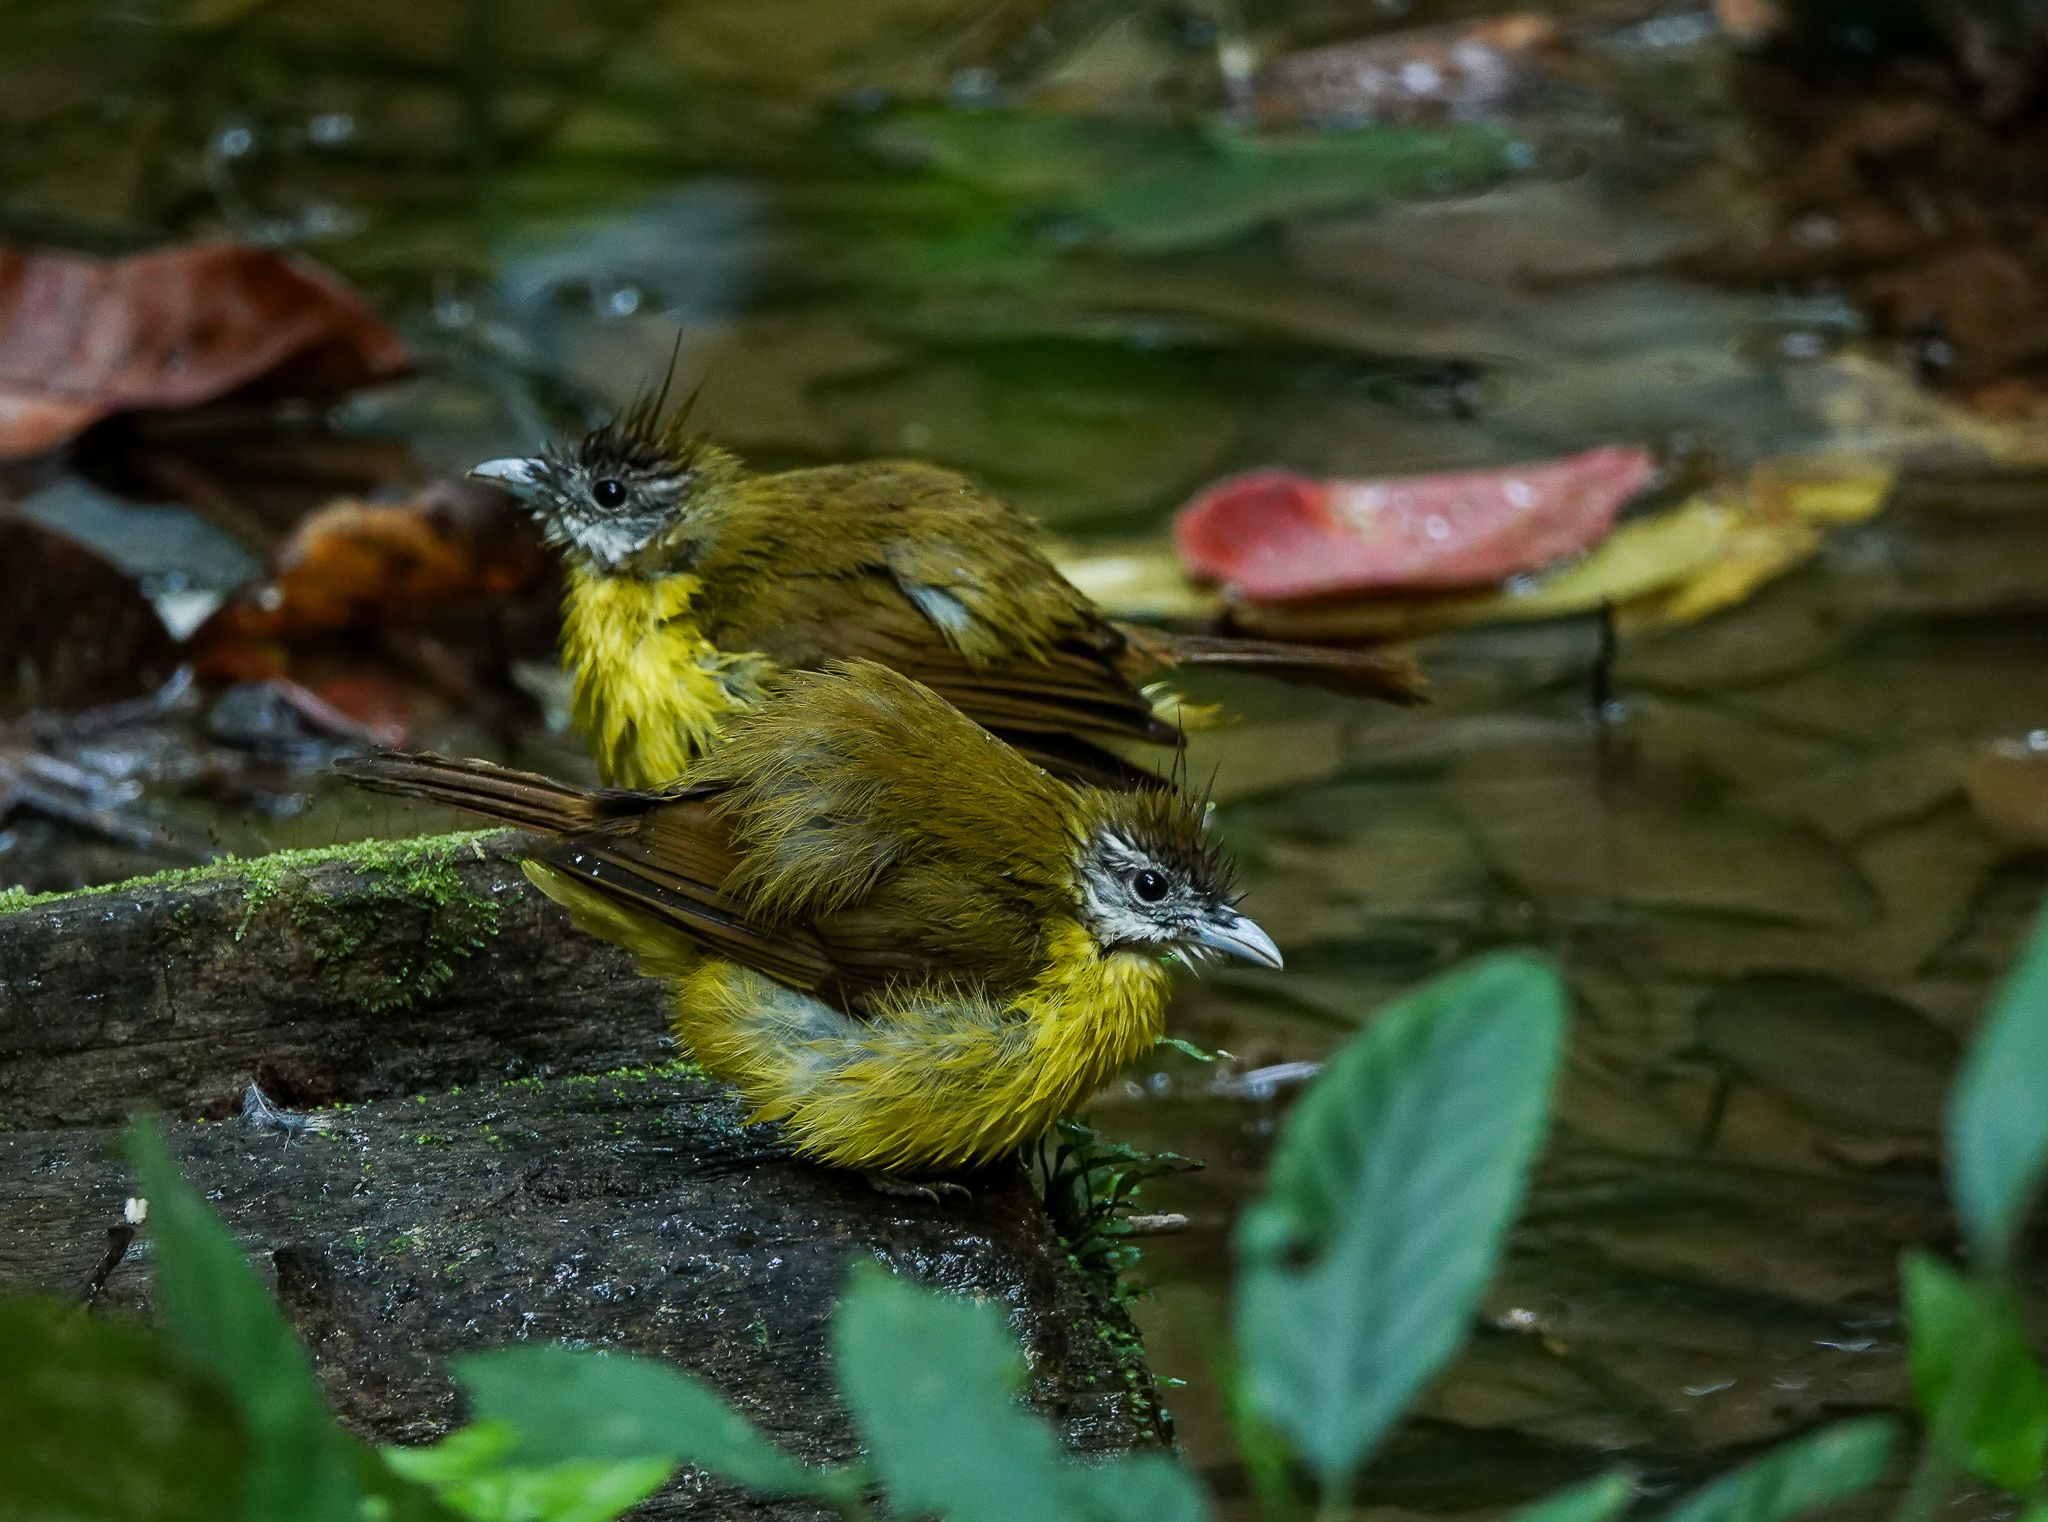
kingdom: Animalia
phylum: Chordata
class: Aves
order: Passeriformes
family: Pycnonotidae
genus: Alophoixus
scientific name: Alophoixus flaveolus
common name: White-throated bulbul
